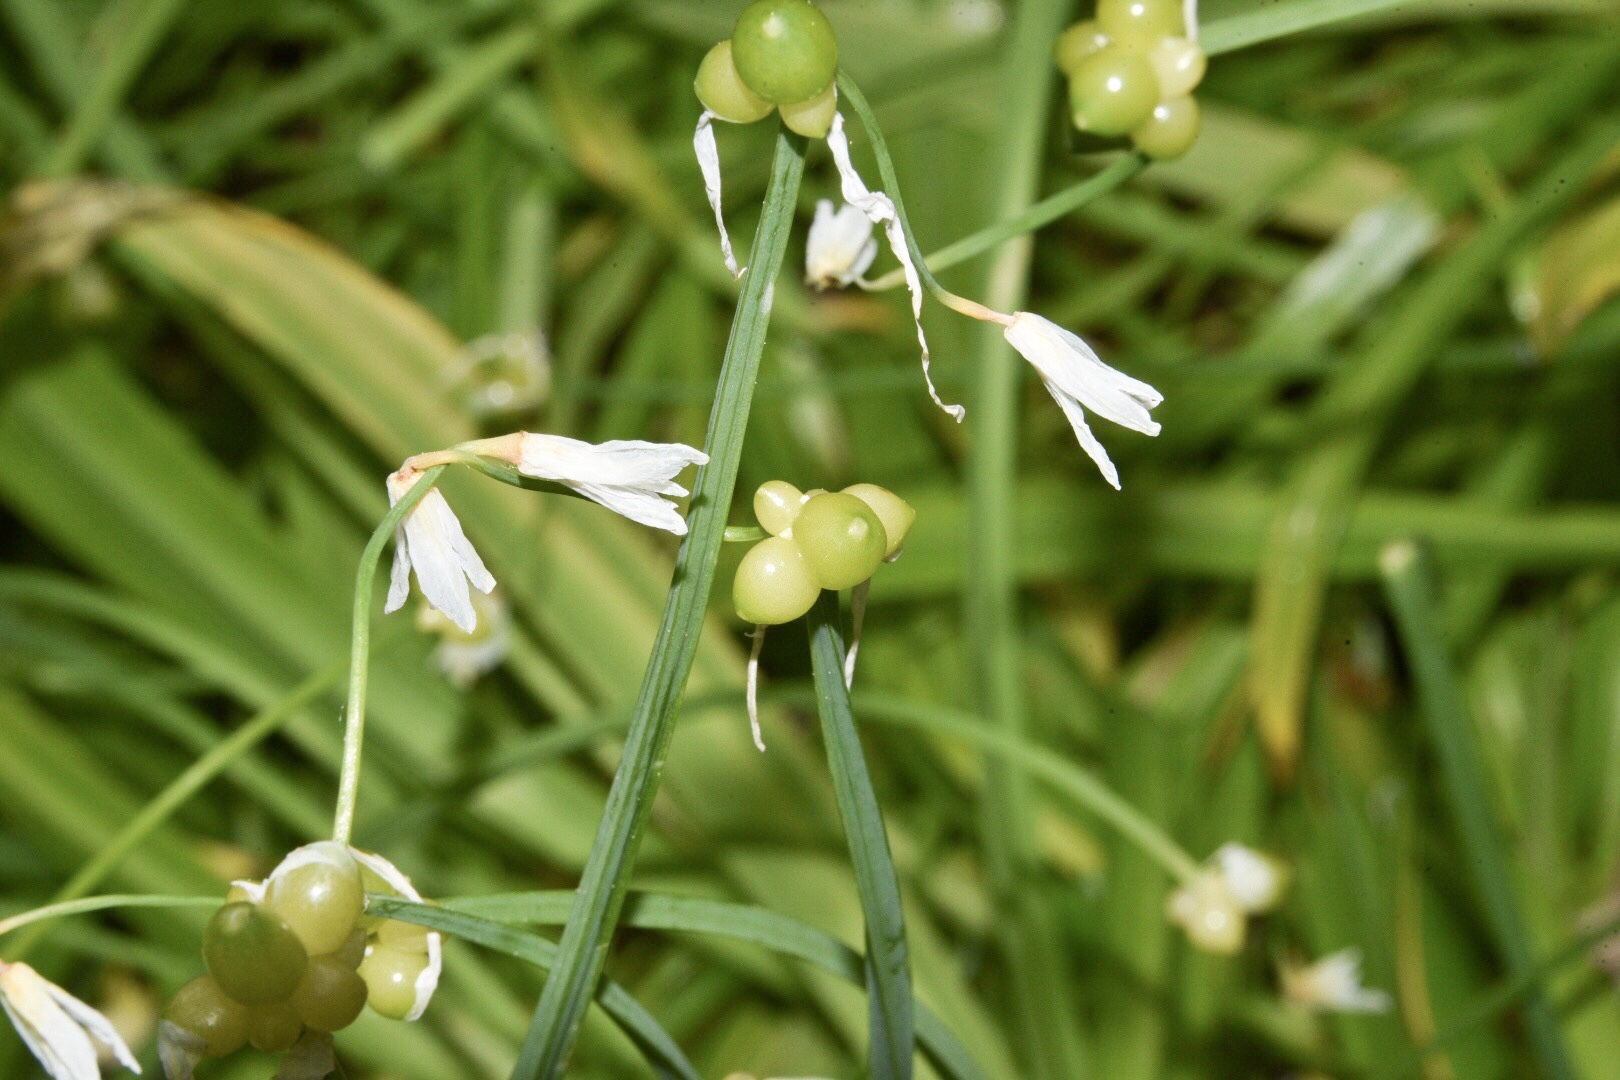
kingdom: Plantae
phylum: Tracheophyta
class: Liliopsida
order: Asparagales
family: Amaryllidaceae
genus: Allium
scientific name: Allium paradoxum
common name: Few-flowered garlic
